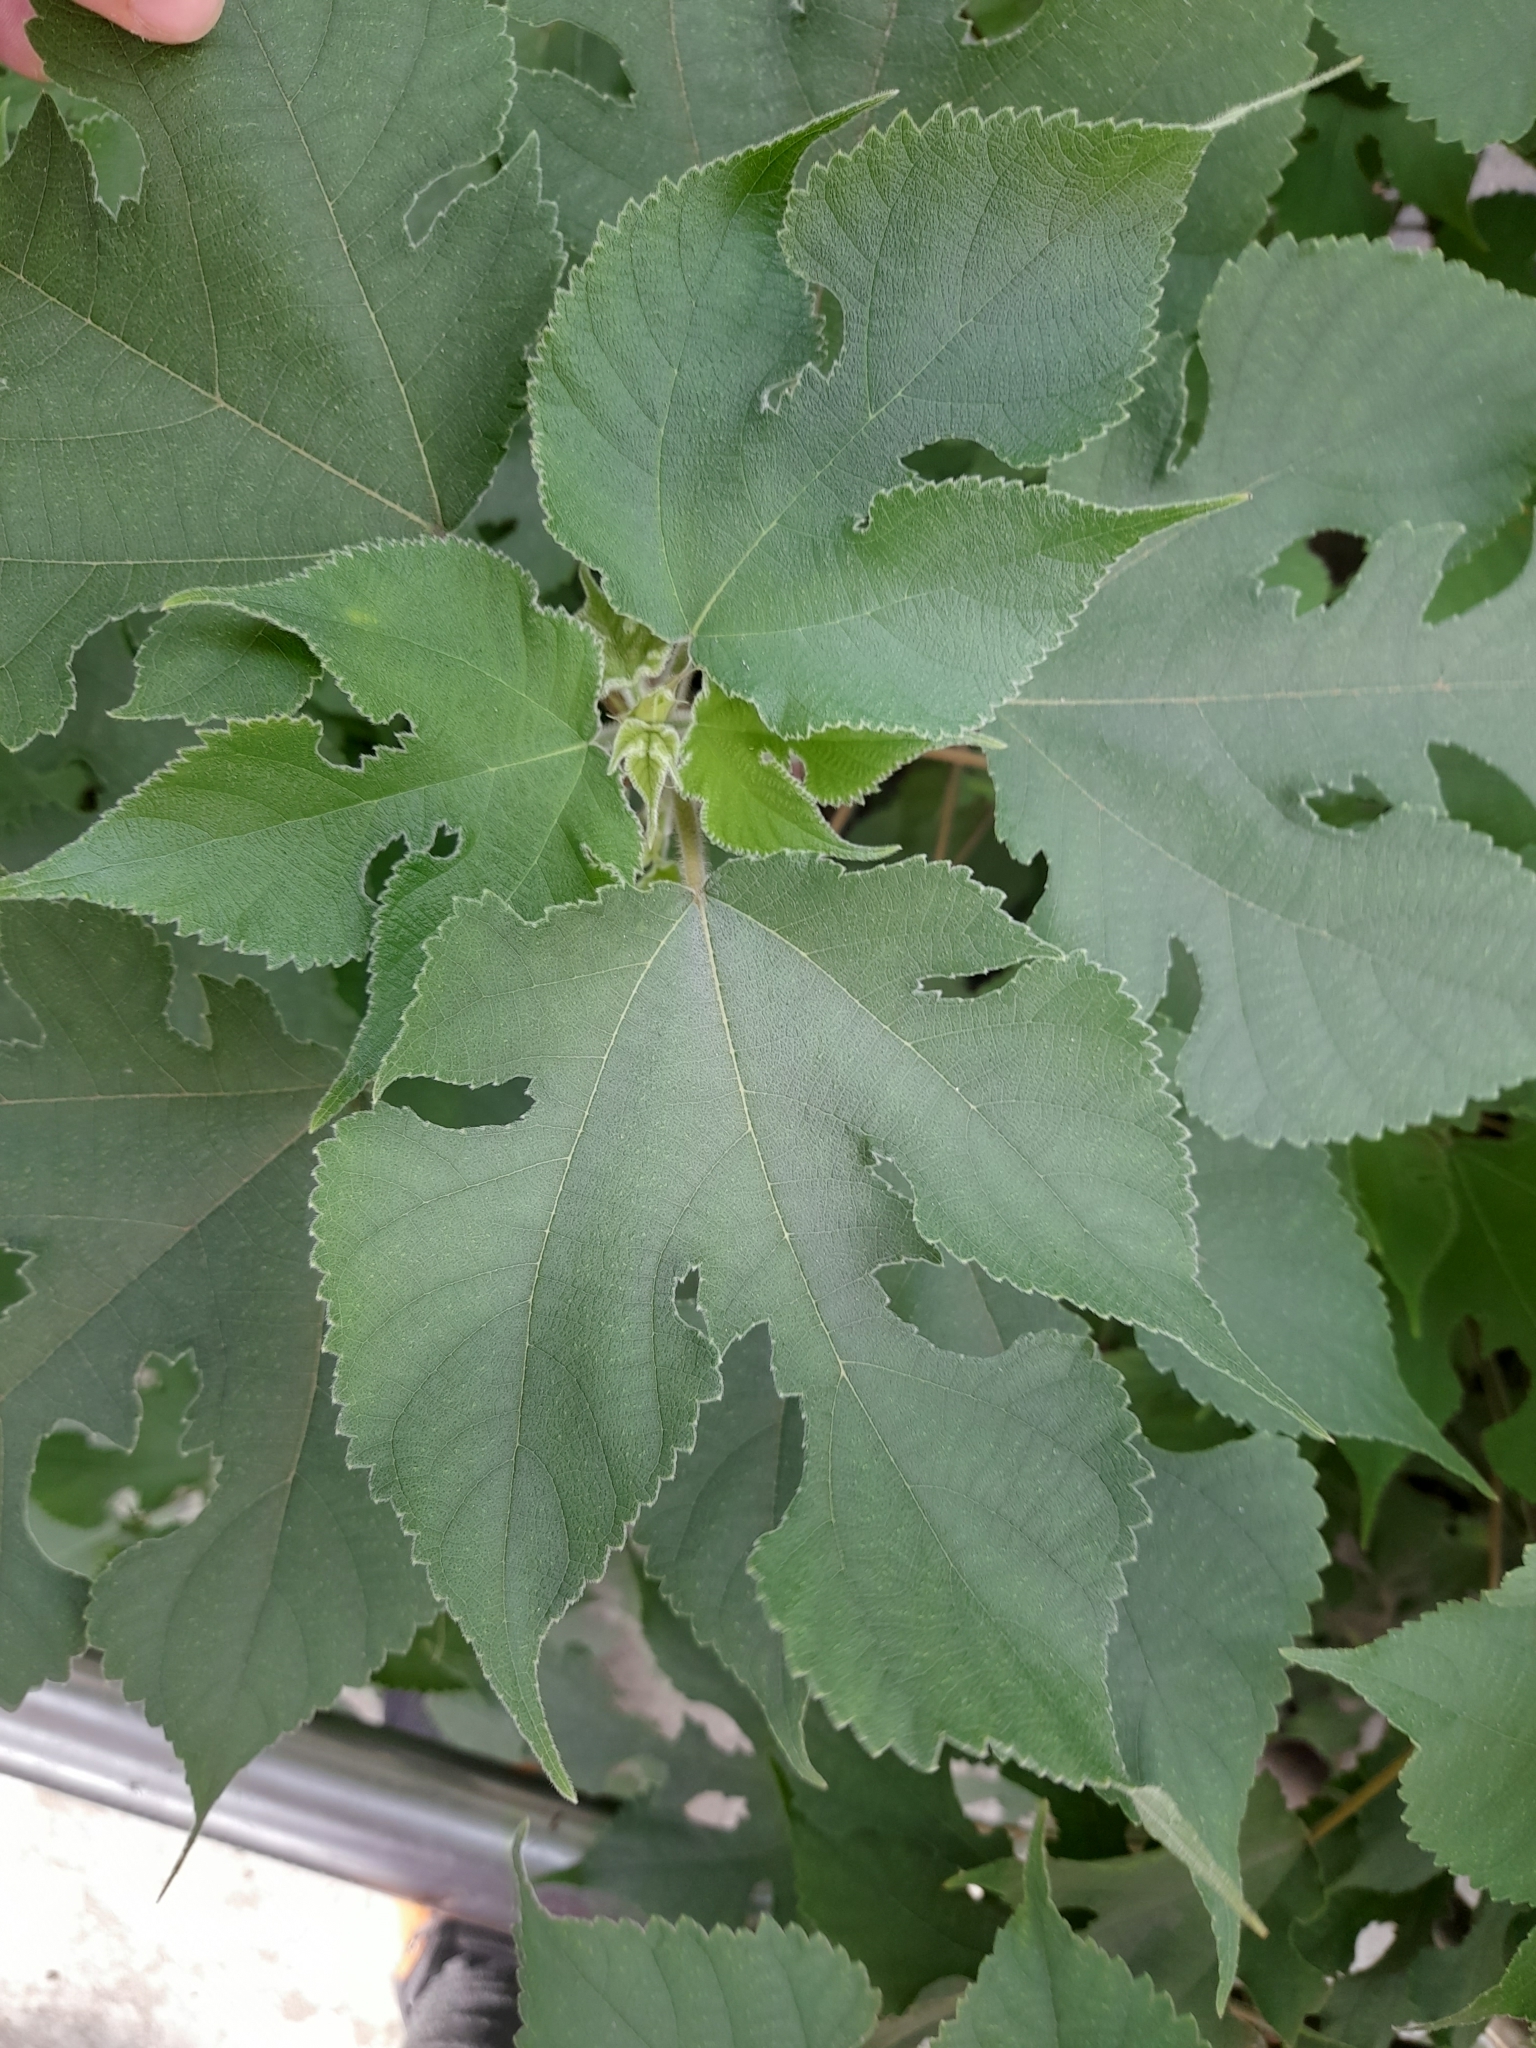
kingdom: Plantae
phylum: Tracheophyta
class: Magnoliopsida
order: Rosales
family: Moraceae
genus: Broussonetia
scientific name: Broussonetia papyrifera
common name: Paper mulberry
